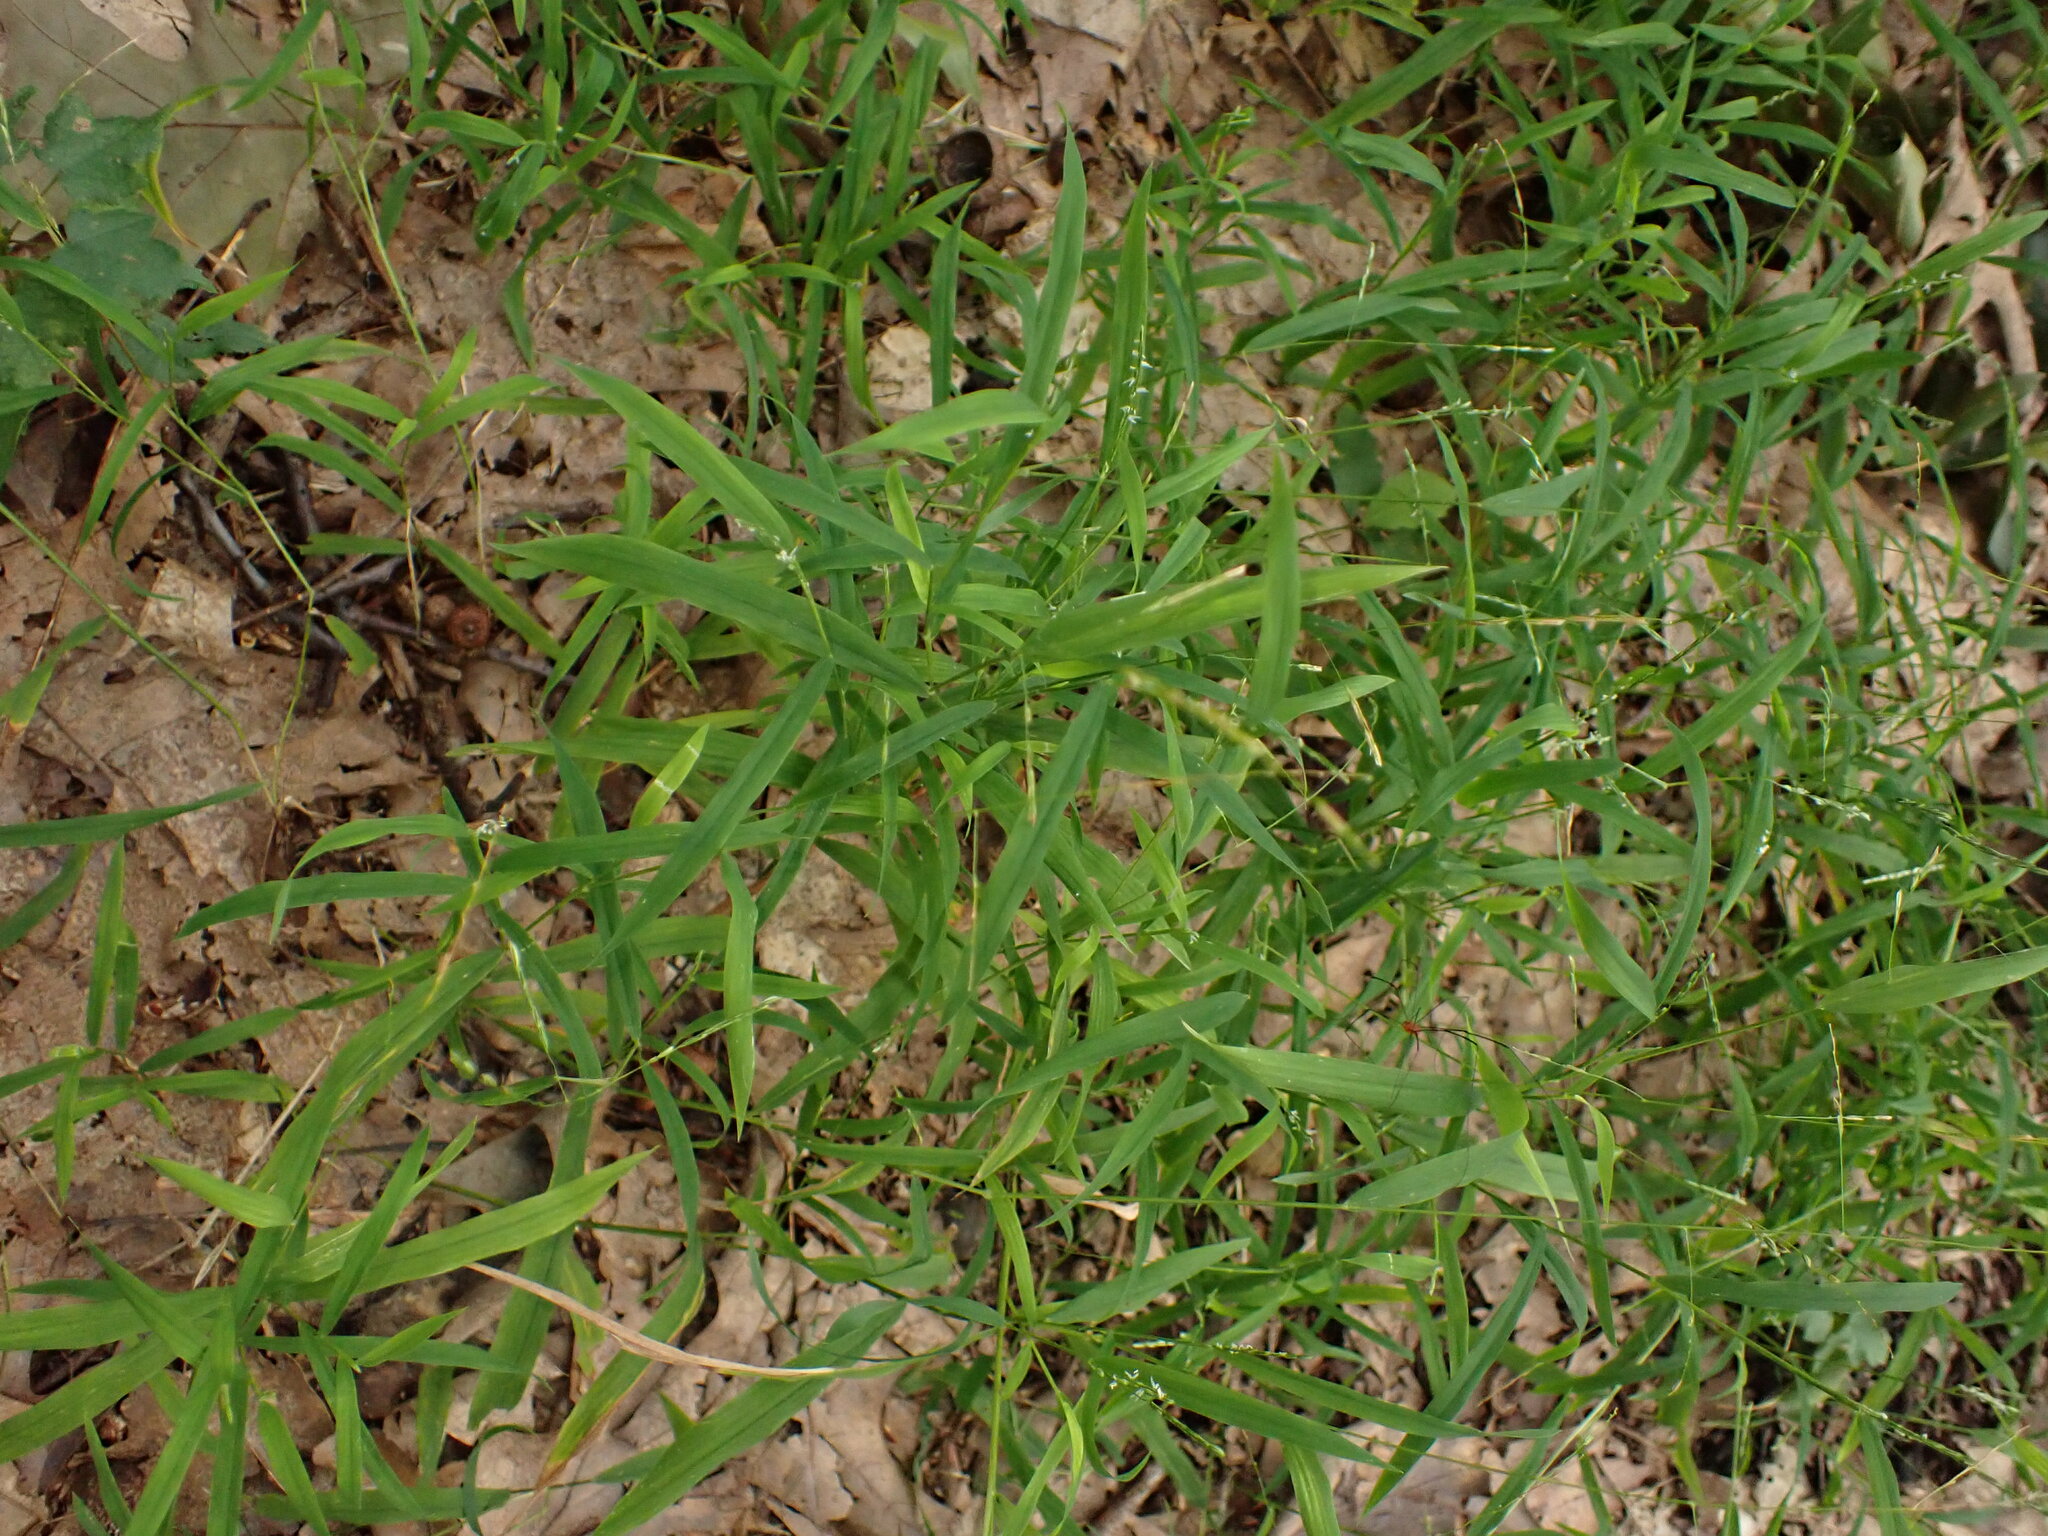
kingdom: Plantae
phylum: Tracheophyta
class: Liliopsida
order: Poales
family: Poaceae
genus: Leersia
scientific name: Leersia virginica
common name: White cutgrass
